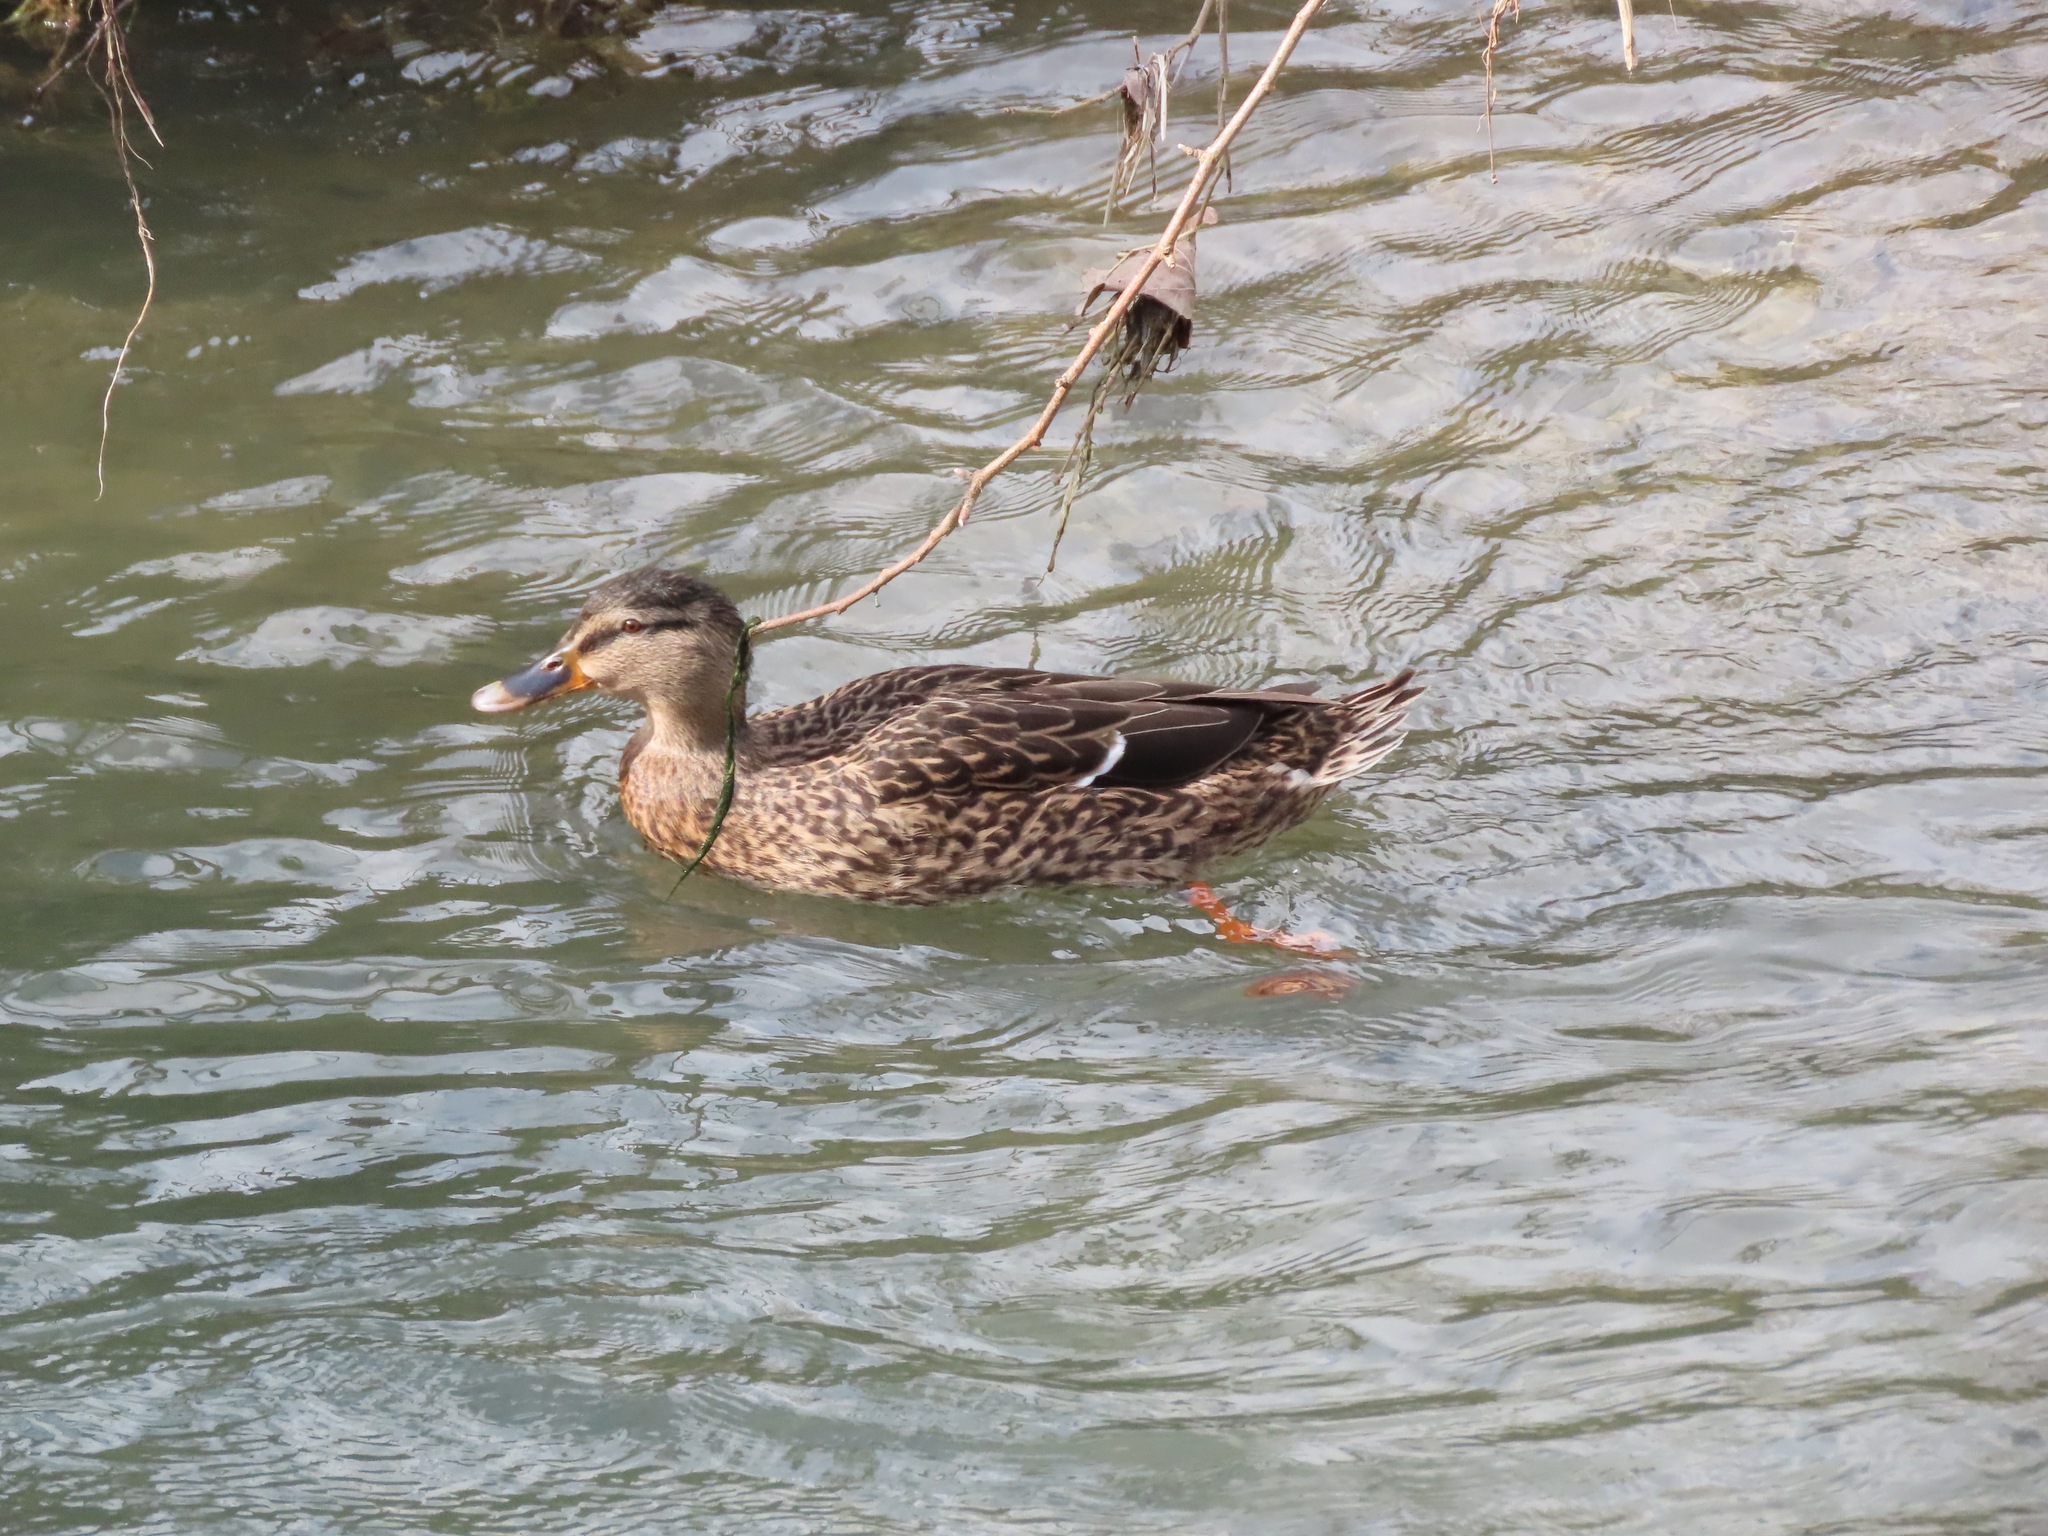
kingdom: Animalia
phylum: Chordata
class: Aves
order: Anseriformes
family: Anatidae
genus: Anas
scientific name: Anas platyrhynchos
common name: Mallard
